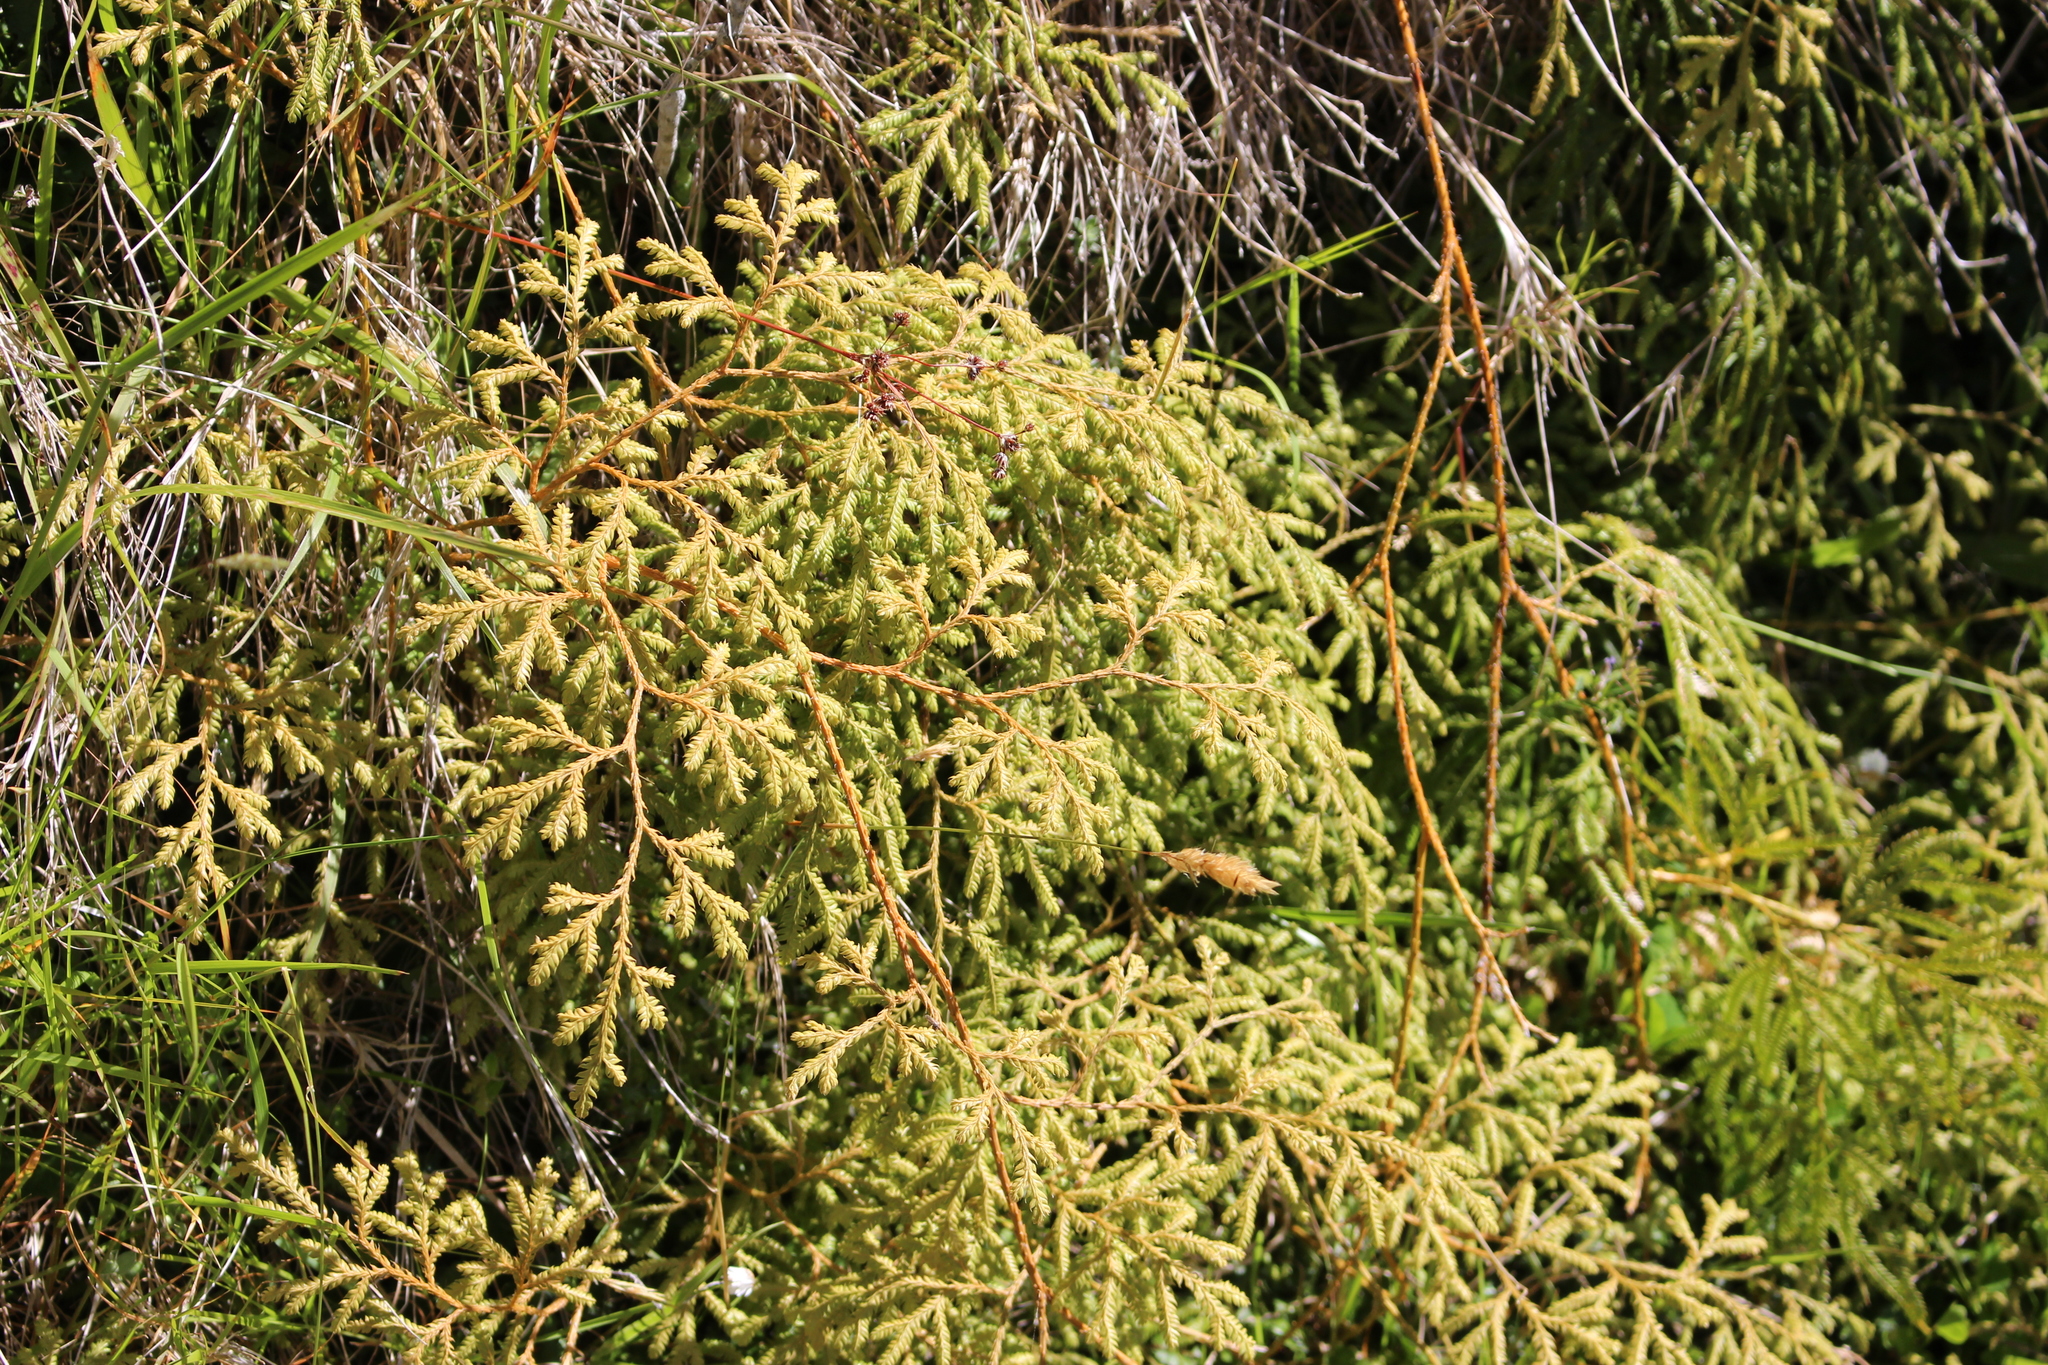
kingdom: Plantae
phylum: Tracheophyta
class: Lycopodiopsida
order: Lycopodiales
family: Lycopodiaceae
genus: Lycopodium
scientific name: Lycopodium volubile
